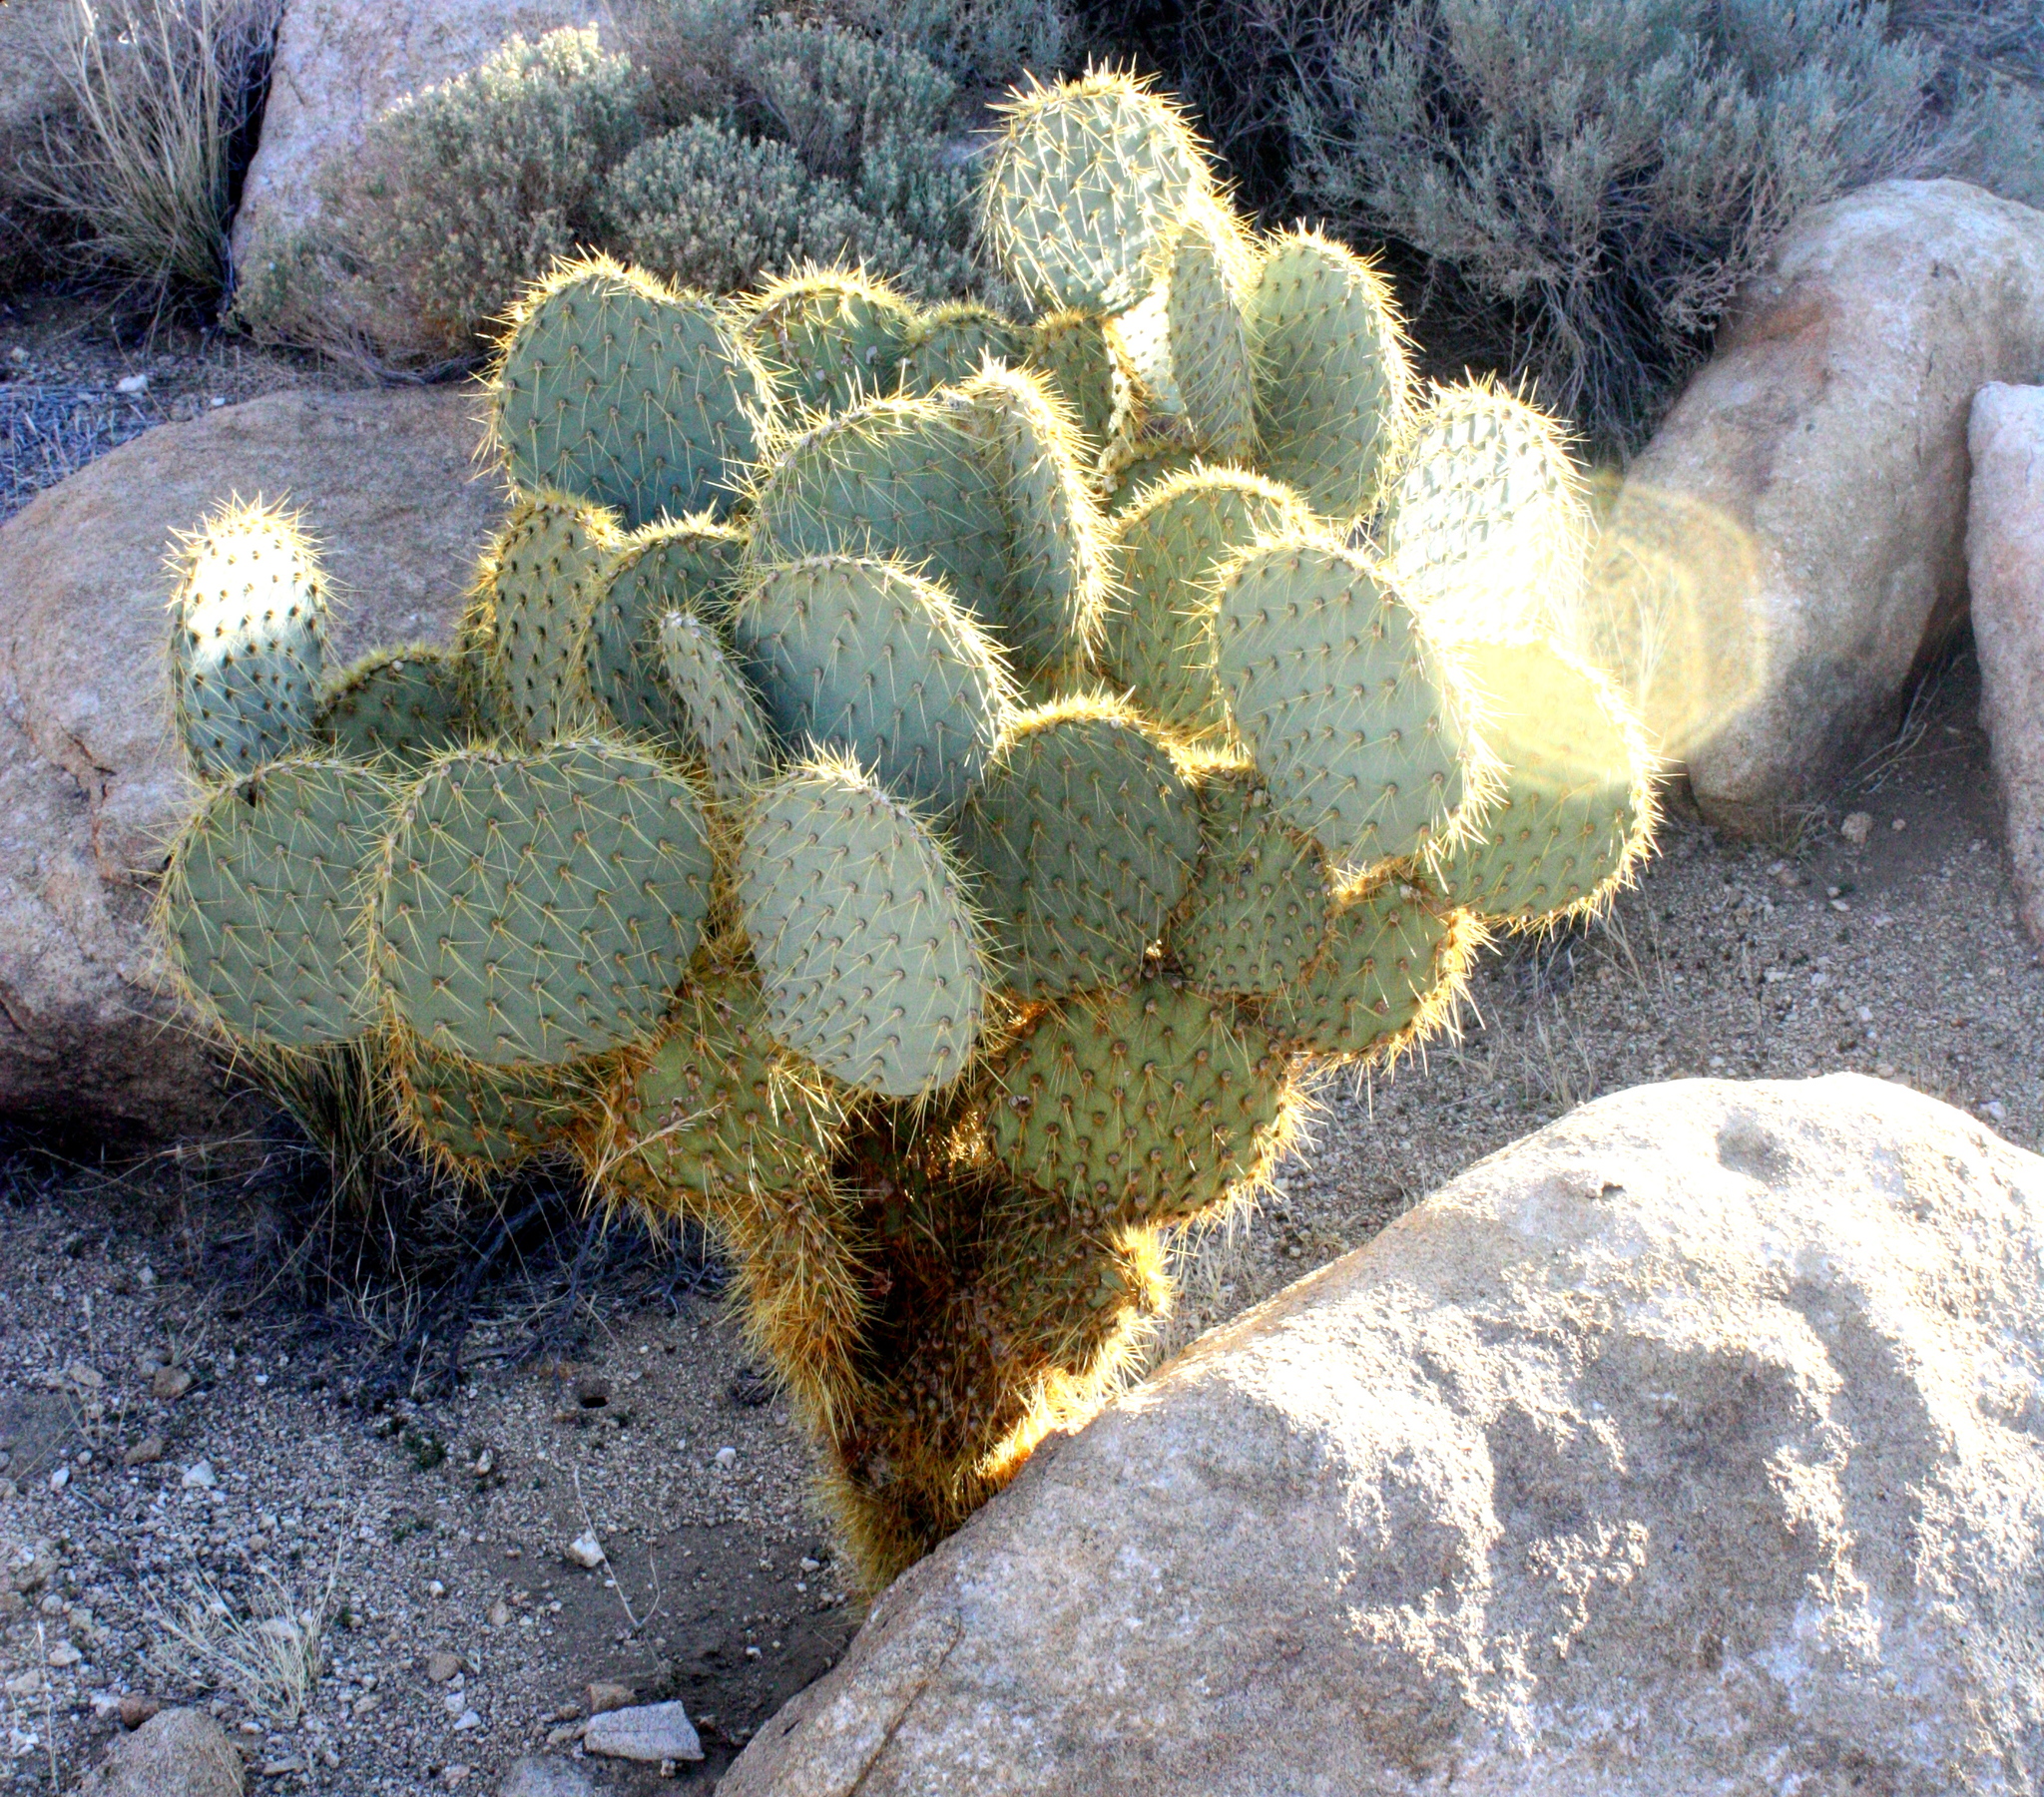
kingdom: Plantae
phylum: Tracheophyta
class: Magnoliopsida
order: Caryophyllales
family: Cactaceae
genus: Opuntia
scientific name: Opuntia chlorotica
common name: Dollar-joint prickly-pear
